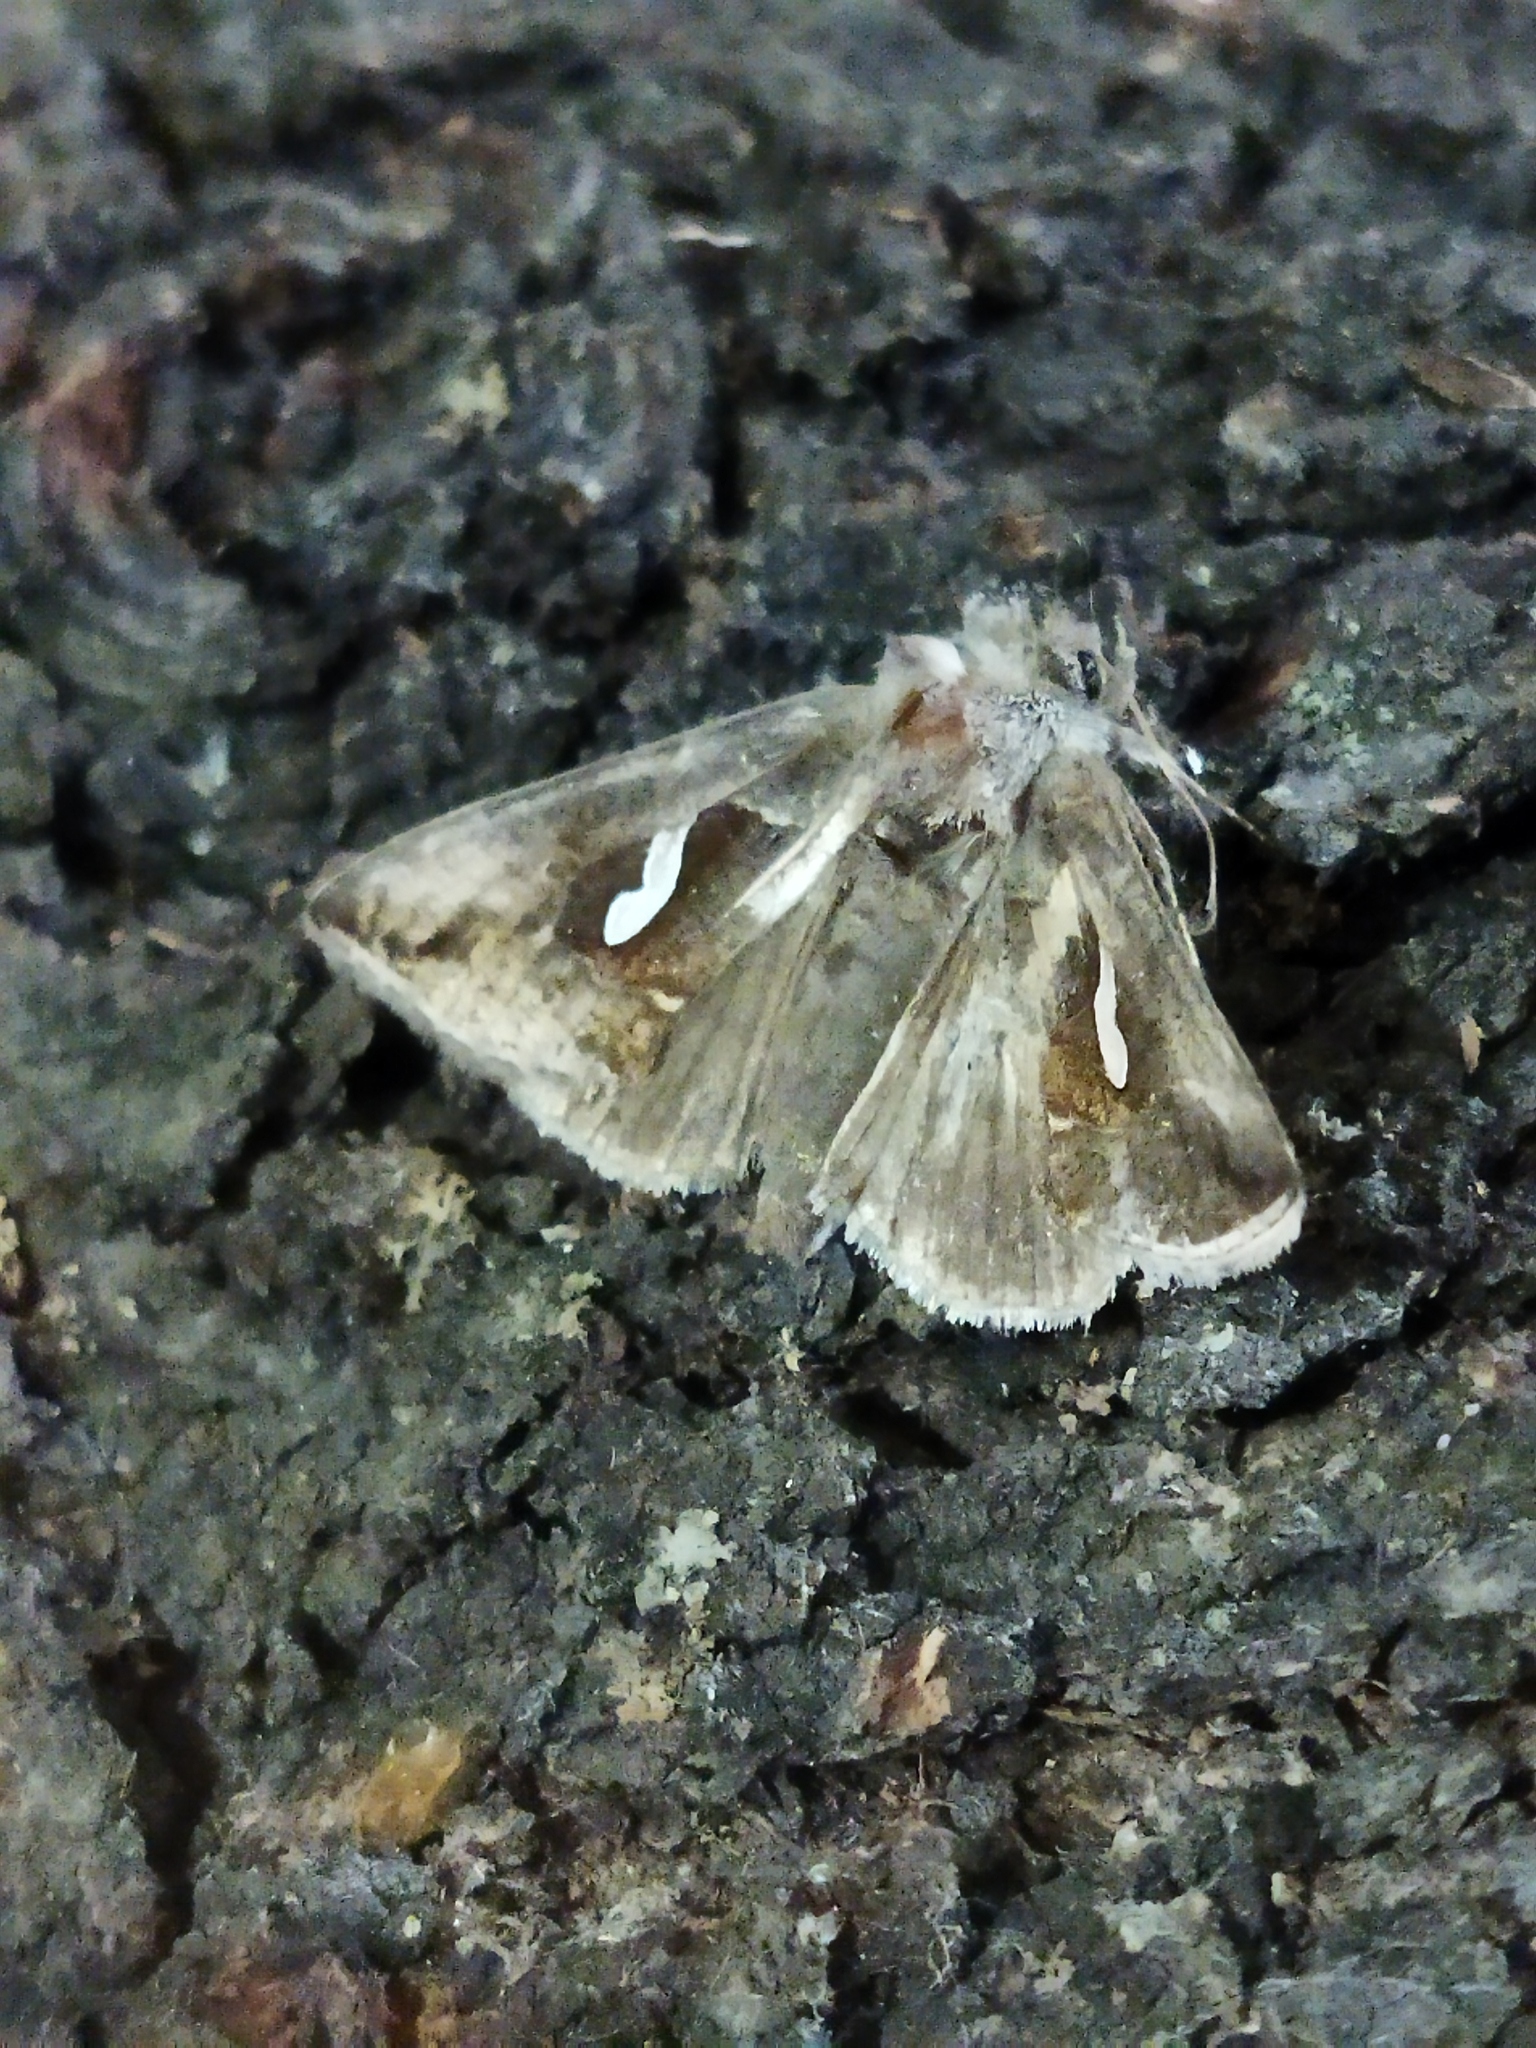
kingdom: Animalia
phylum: Arthropoda
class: Insecta
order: Lepidoptera
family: Noctuidae
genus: Macdunnoughia
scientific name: Macdunnoughia confusa
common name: Dewick's plusia
